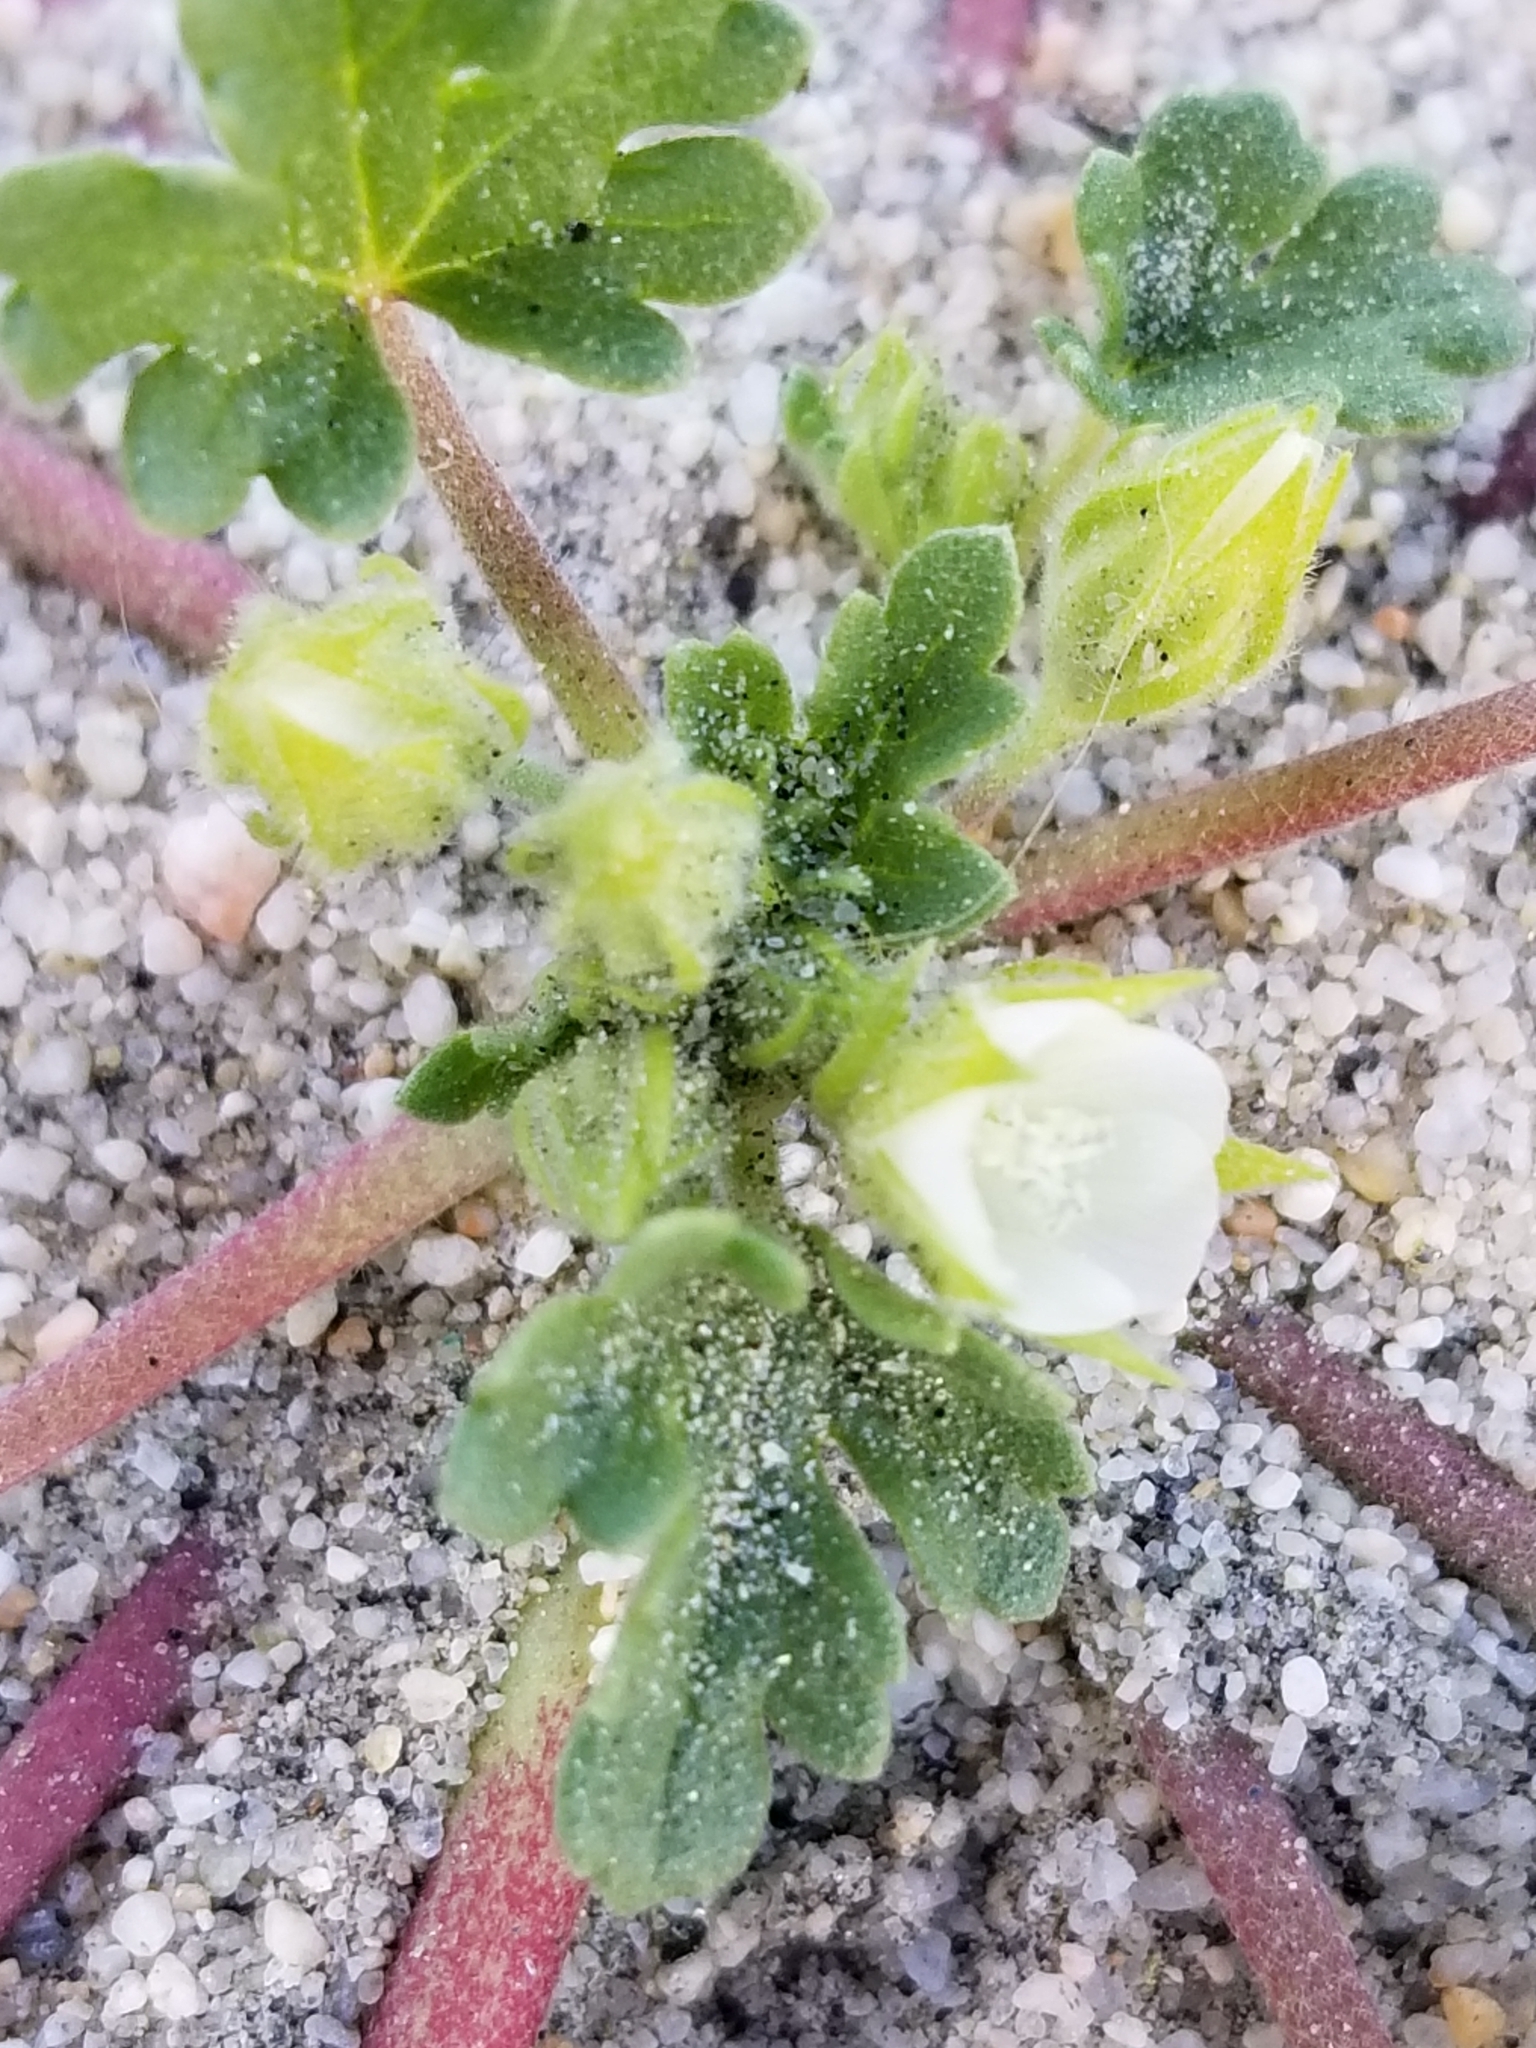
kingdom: Plantae
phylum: Tracheophyta
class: Magnoliopsida
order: Malvales
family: Malvaceae
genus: Eremalche
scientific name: Eremalche exilis
